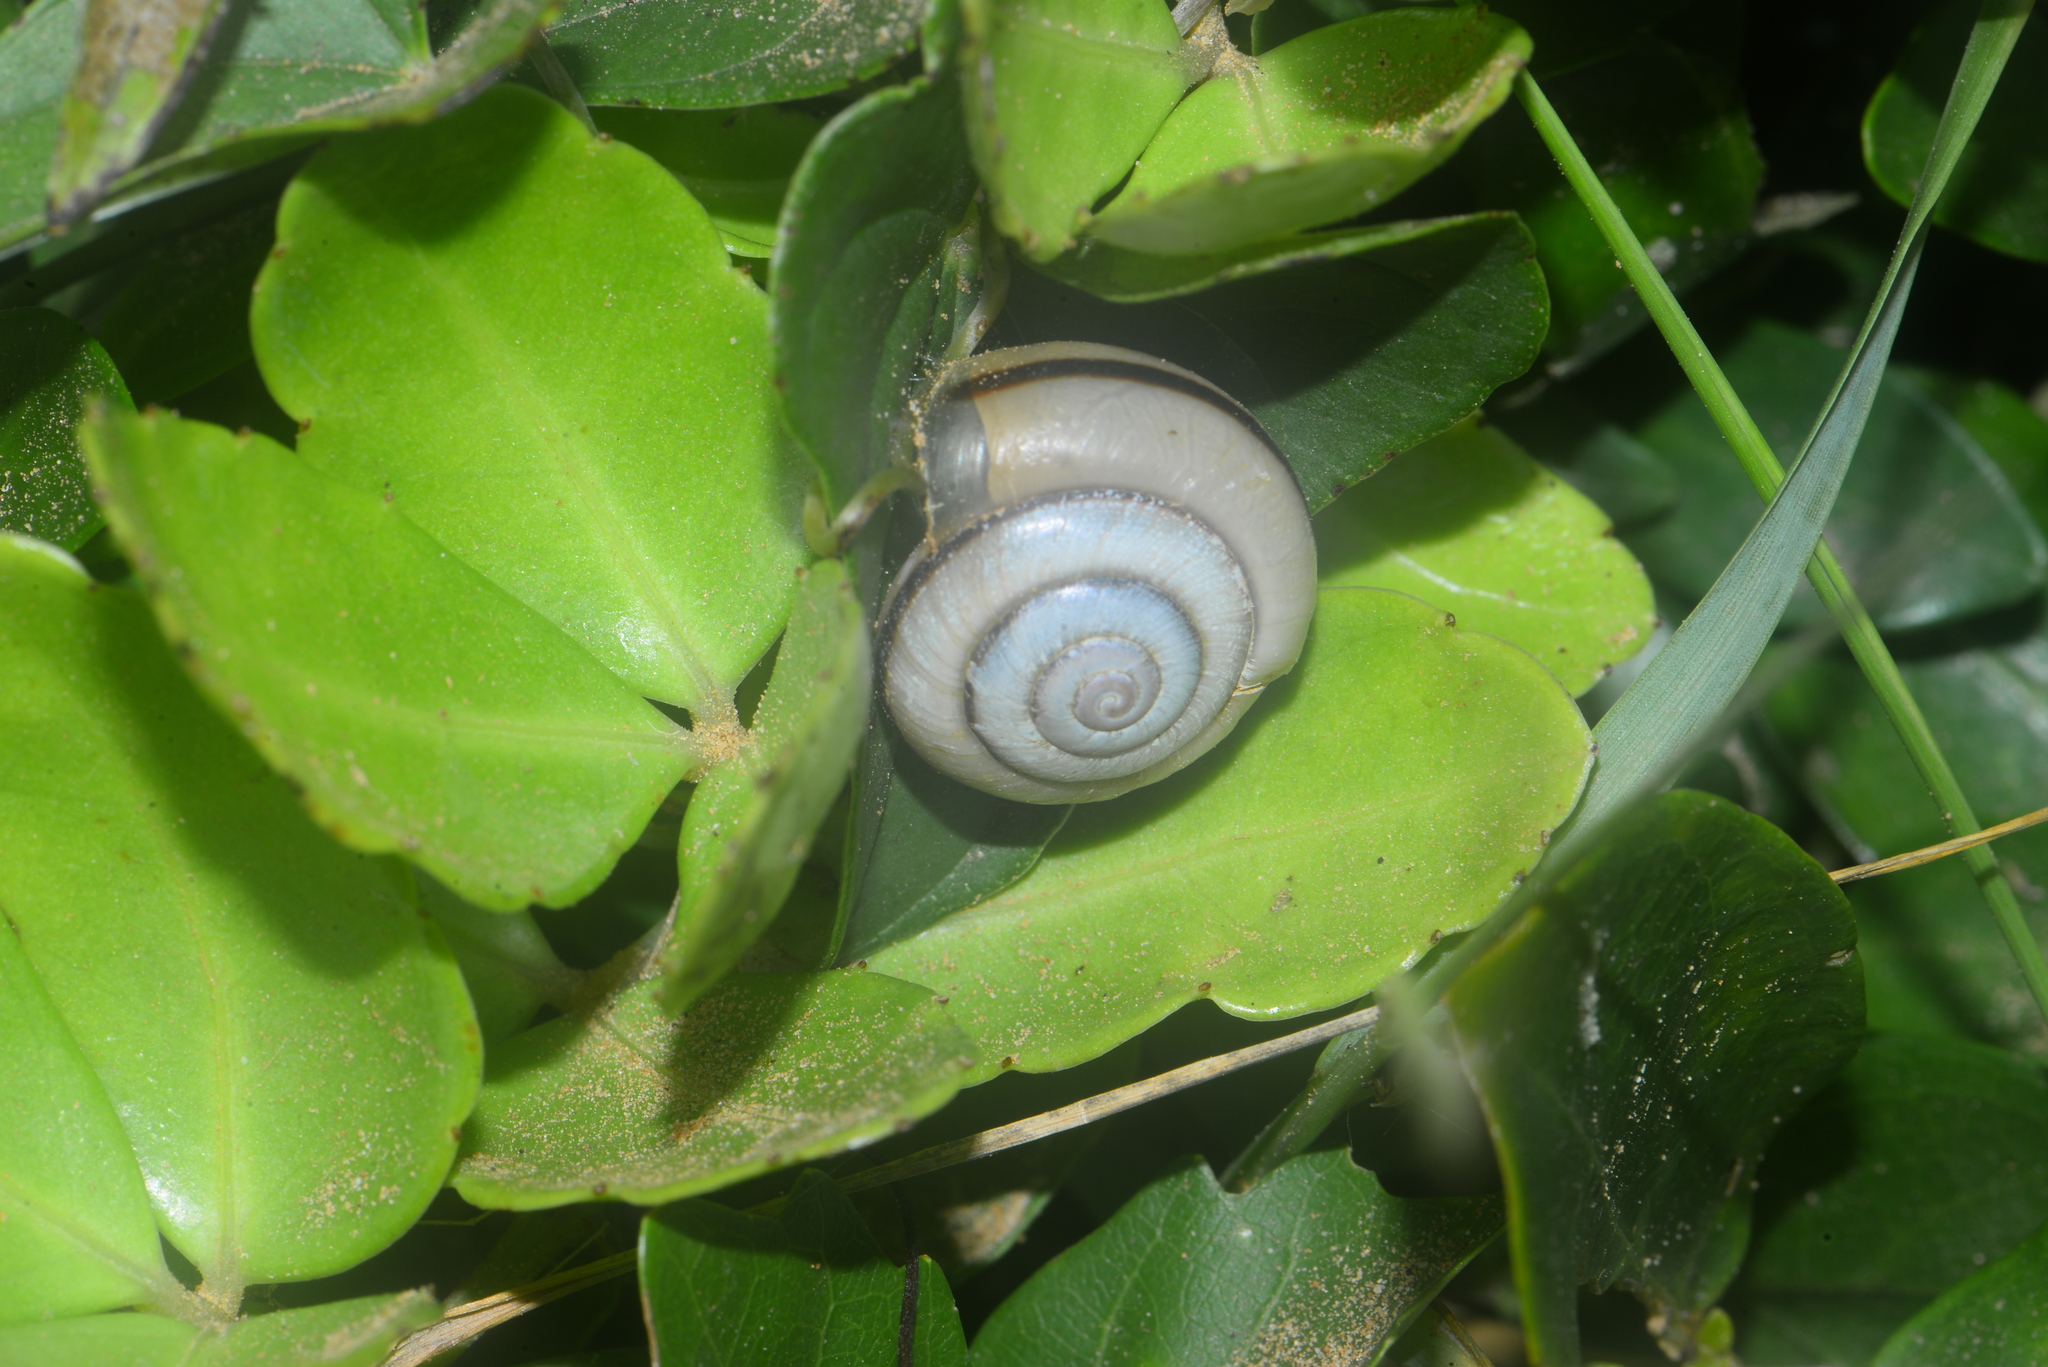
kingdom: Animalia
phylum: Mollusca
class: Gastropoda
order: Stylommatophora
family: Camaenidae
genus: Pancala
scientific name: Pancala batanica
